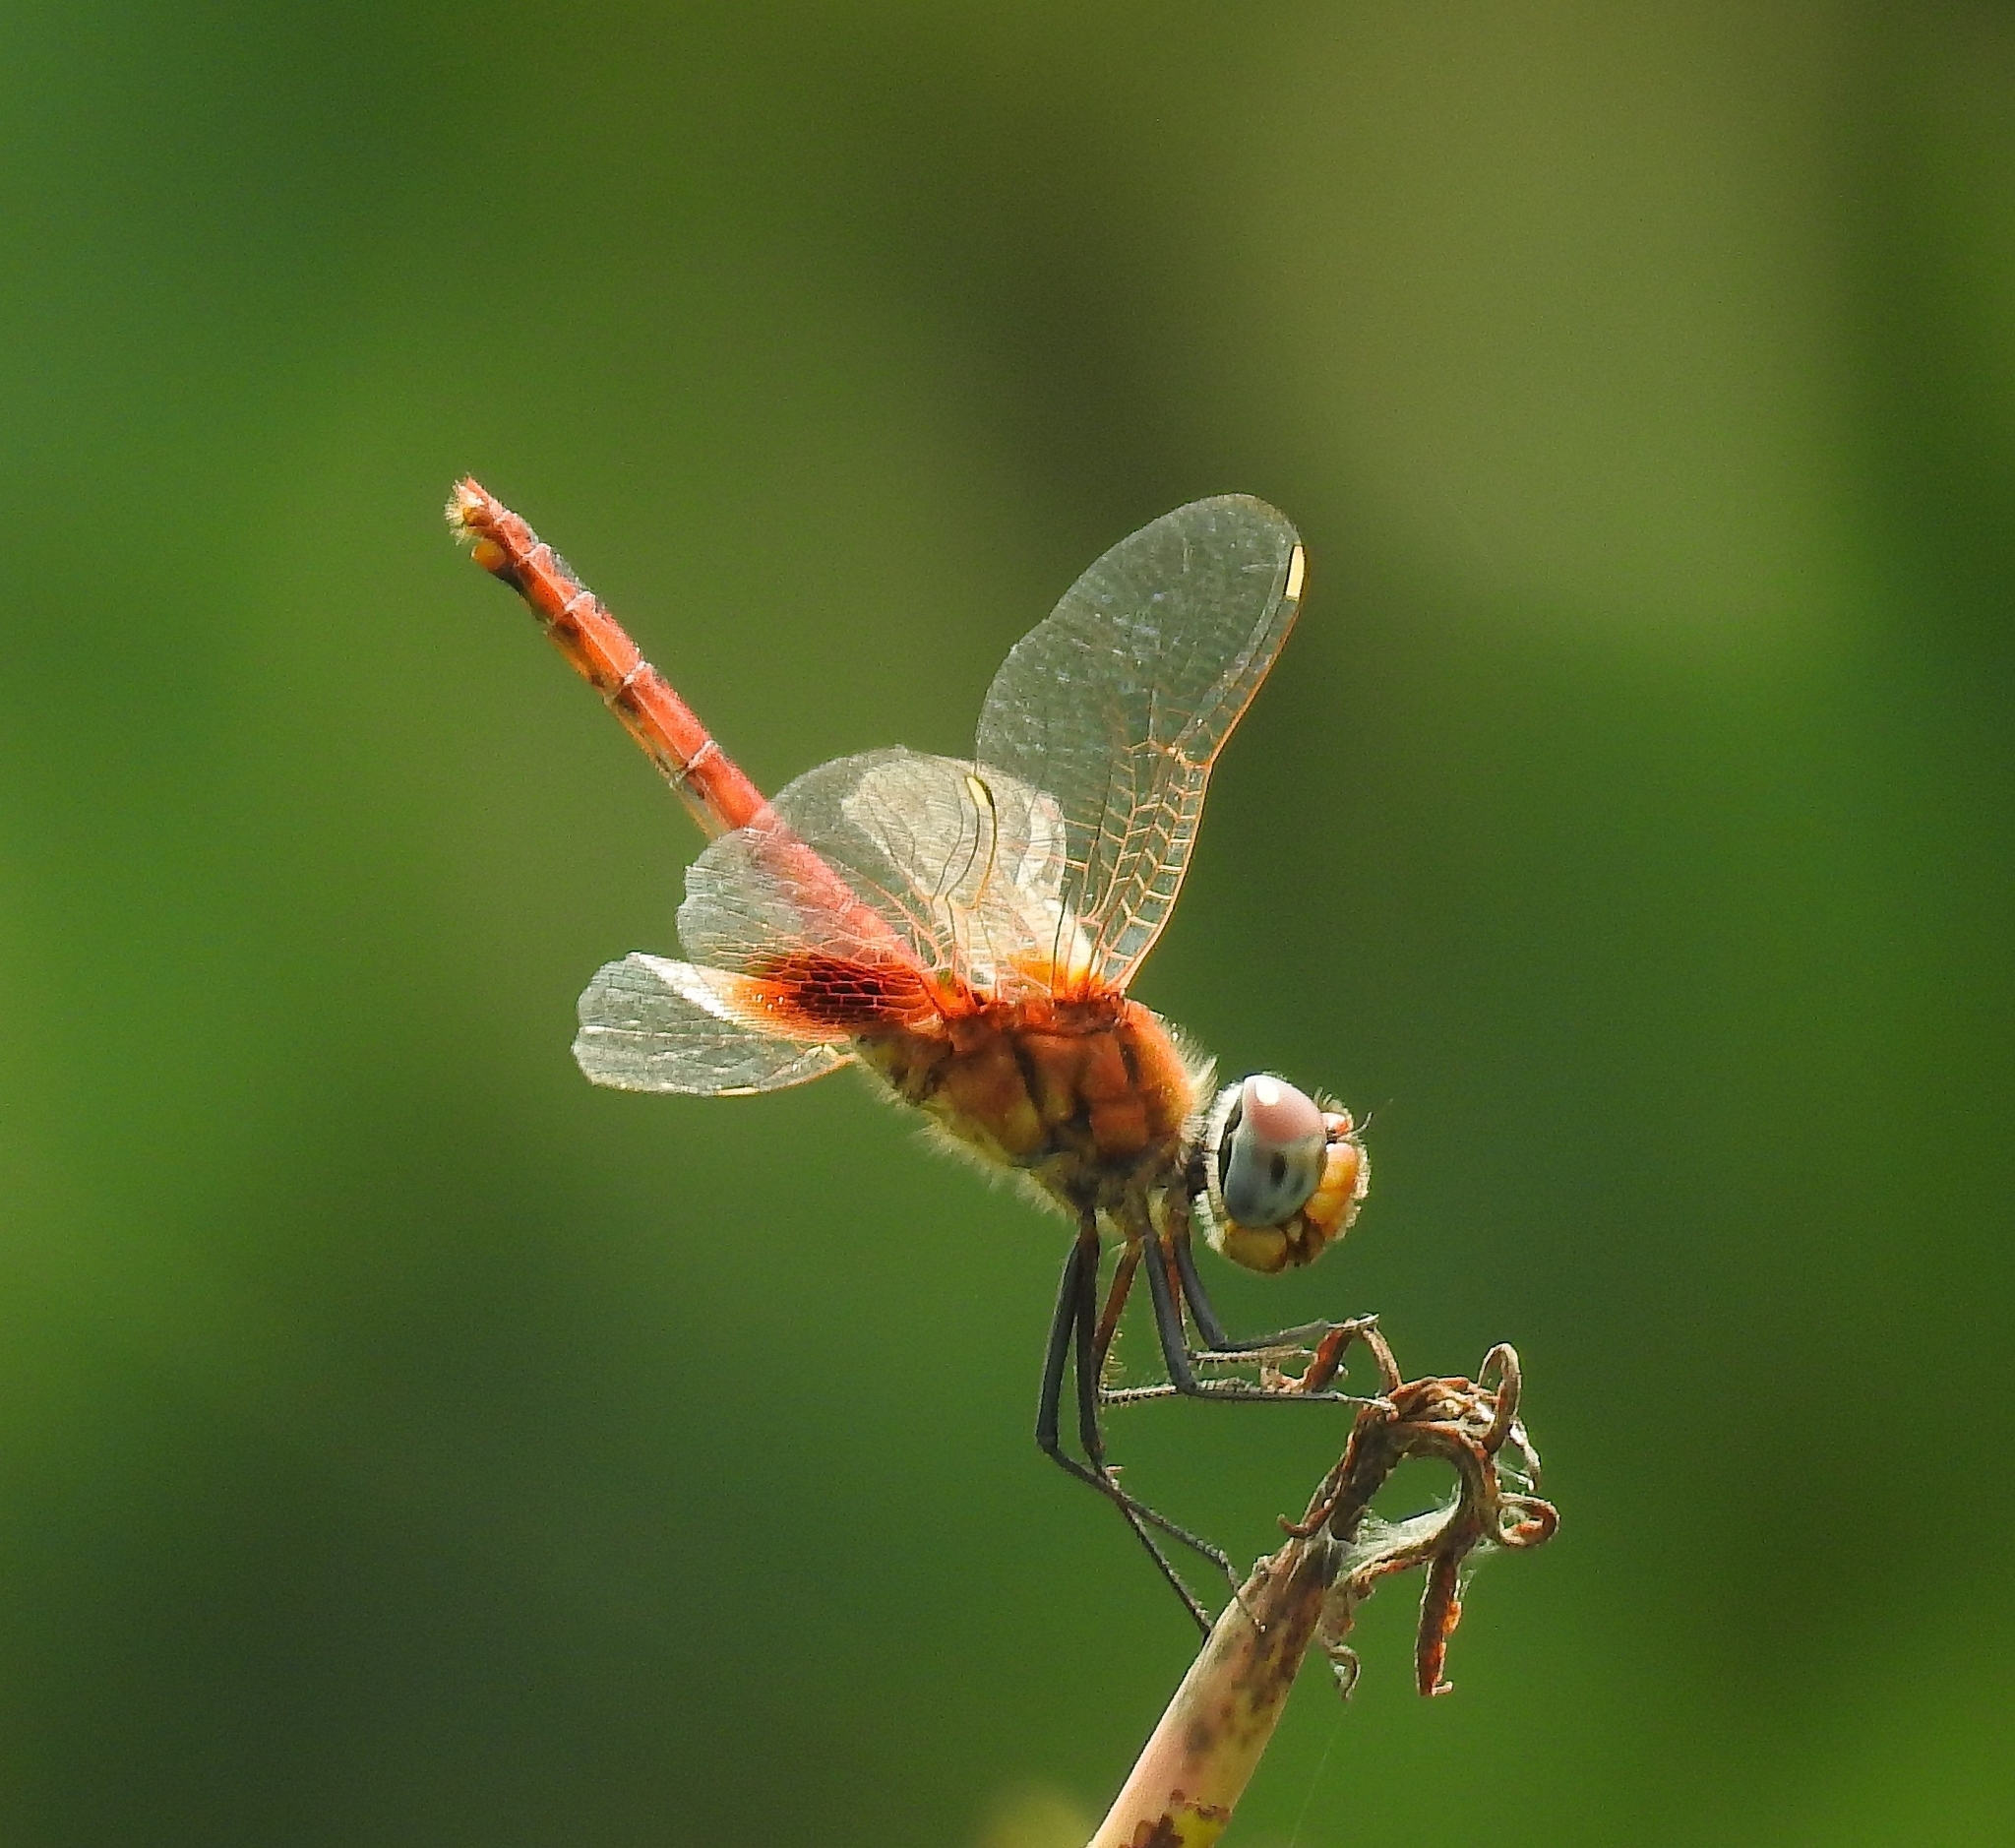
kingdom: Animalia
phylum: Arthropoda
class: Insecta
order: Odonata
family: Libellulidae
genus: Urothemis
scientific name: Urothemis signata
